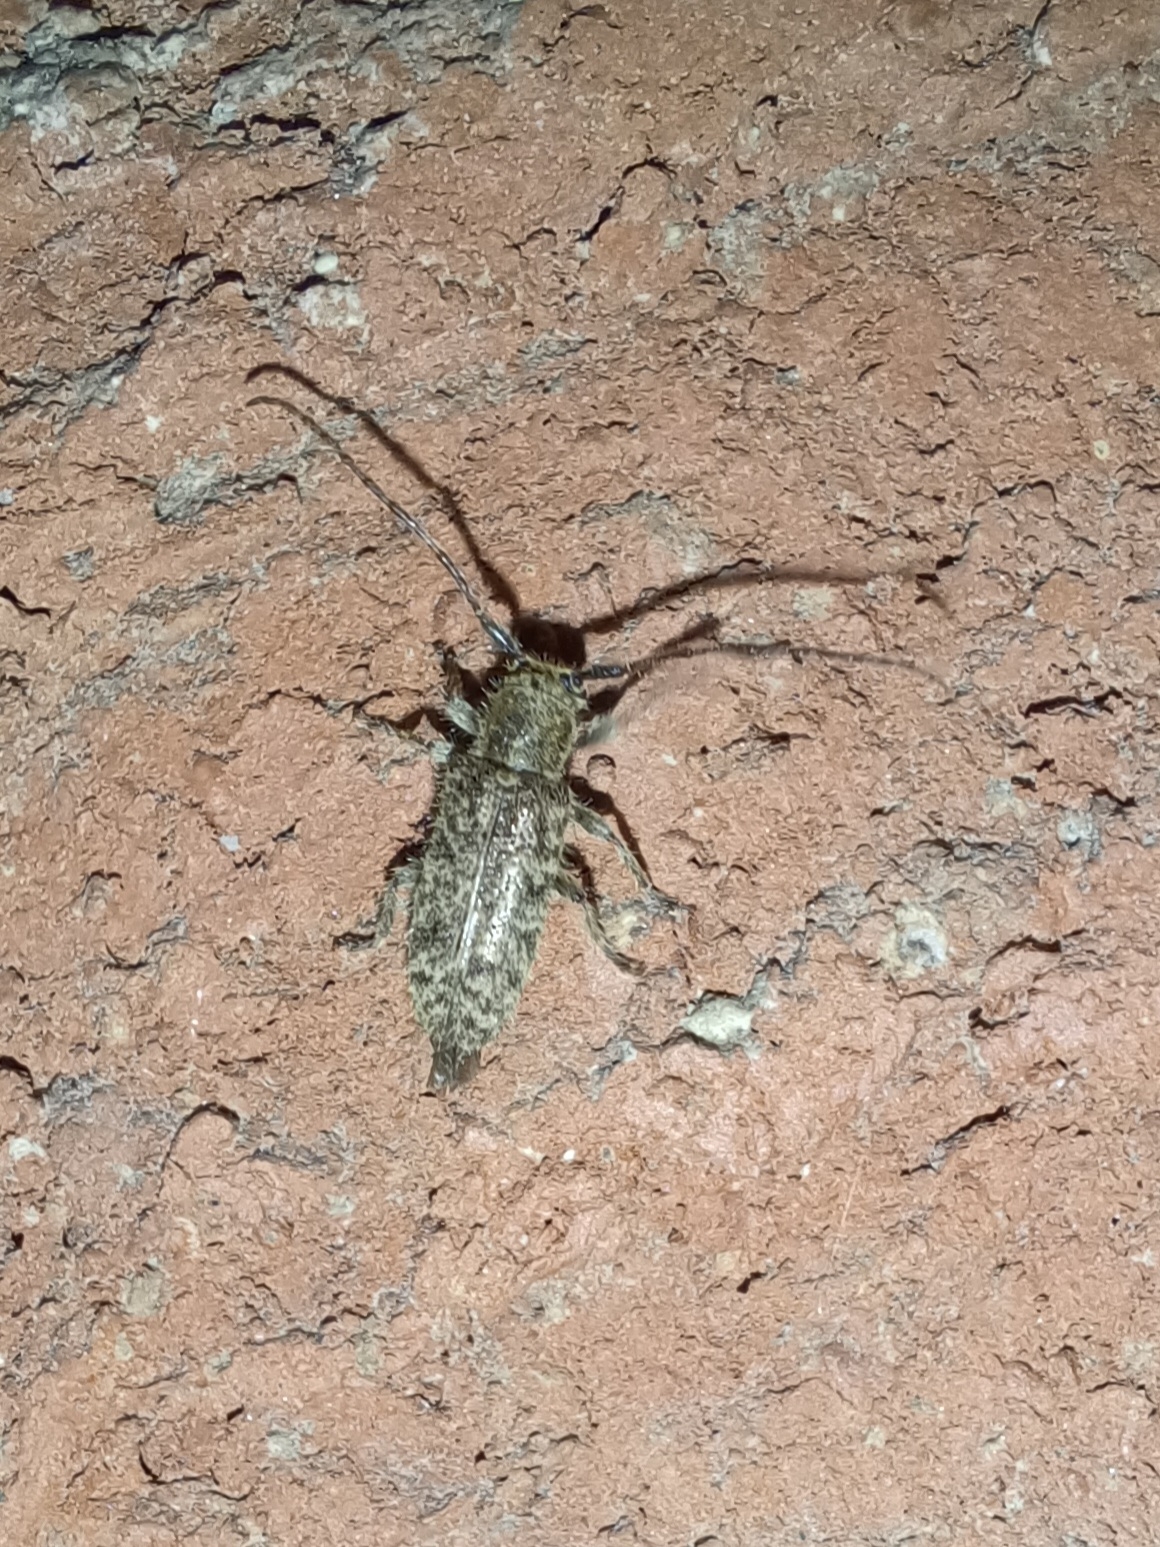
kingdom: Animalia
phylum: Arthropoda
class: Insecta
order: Coleoptera
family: Cerambycidae
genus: Eupogonius
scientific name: Eupogonius pauper
